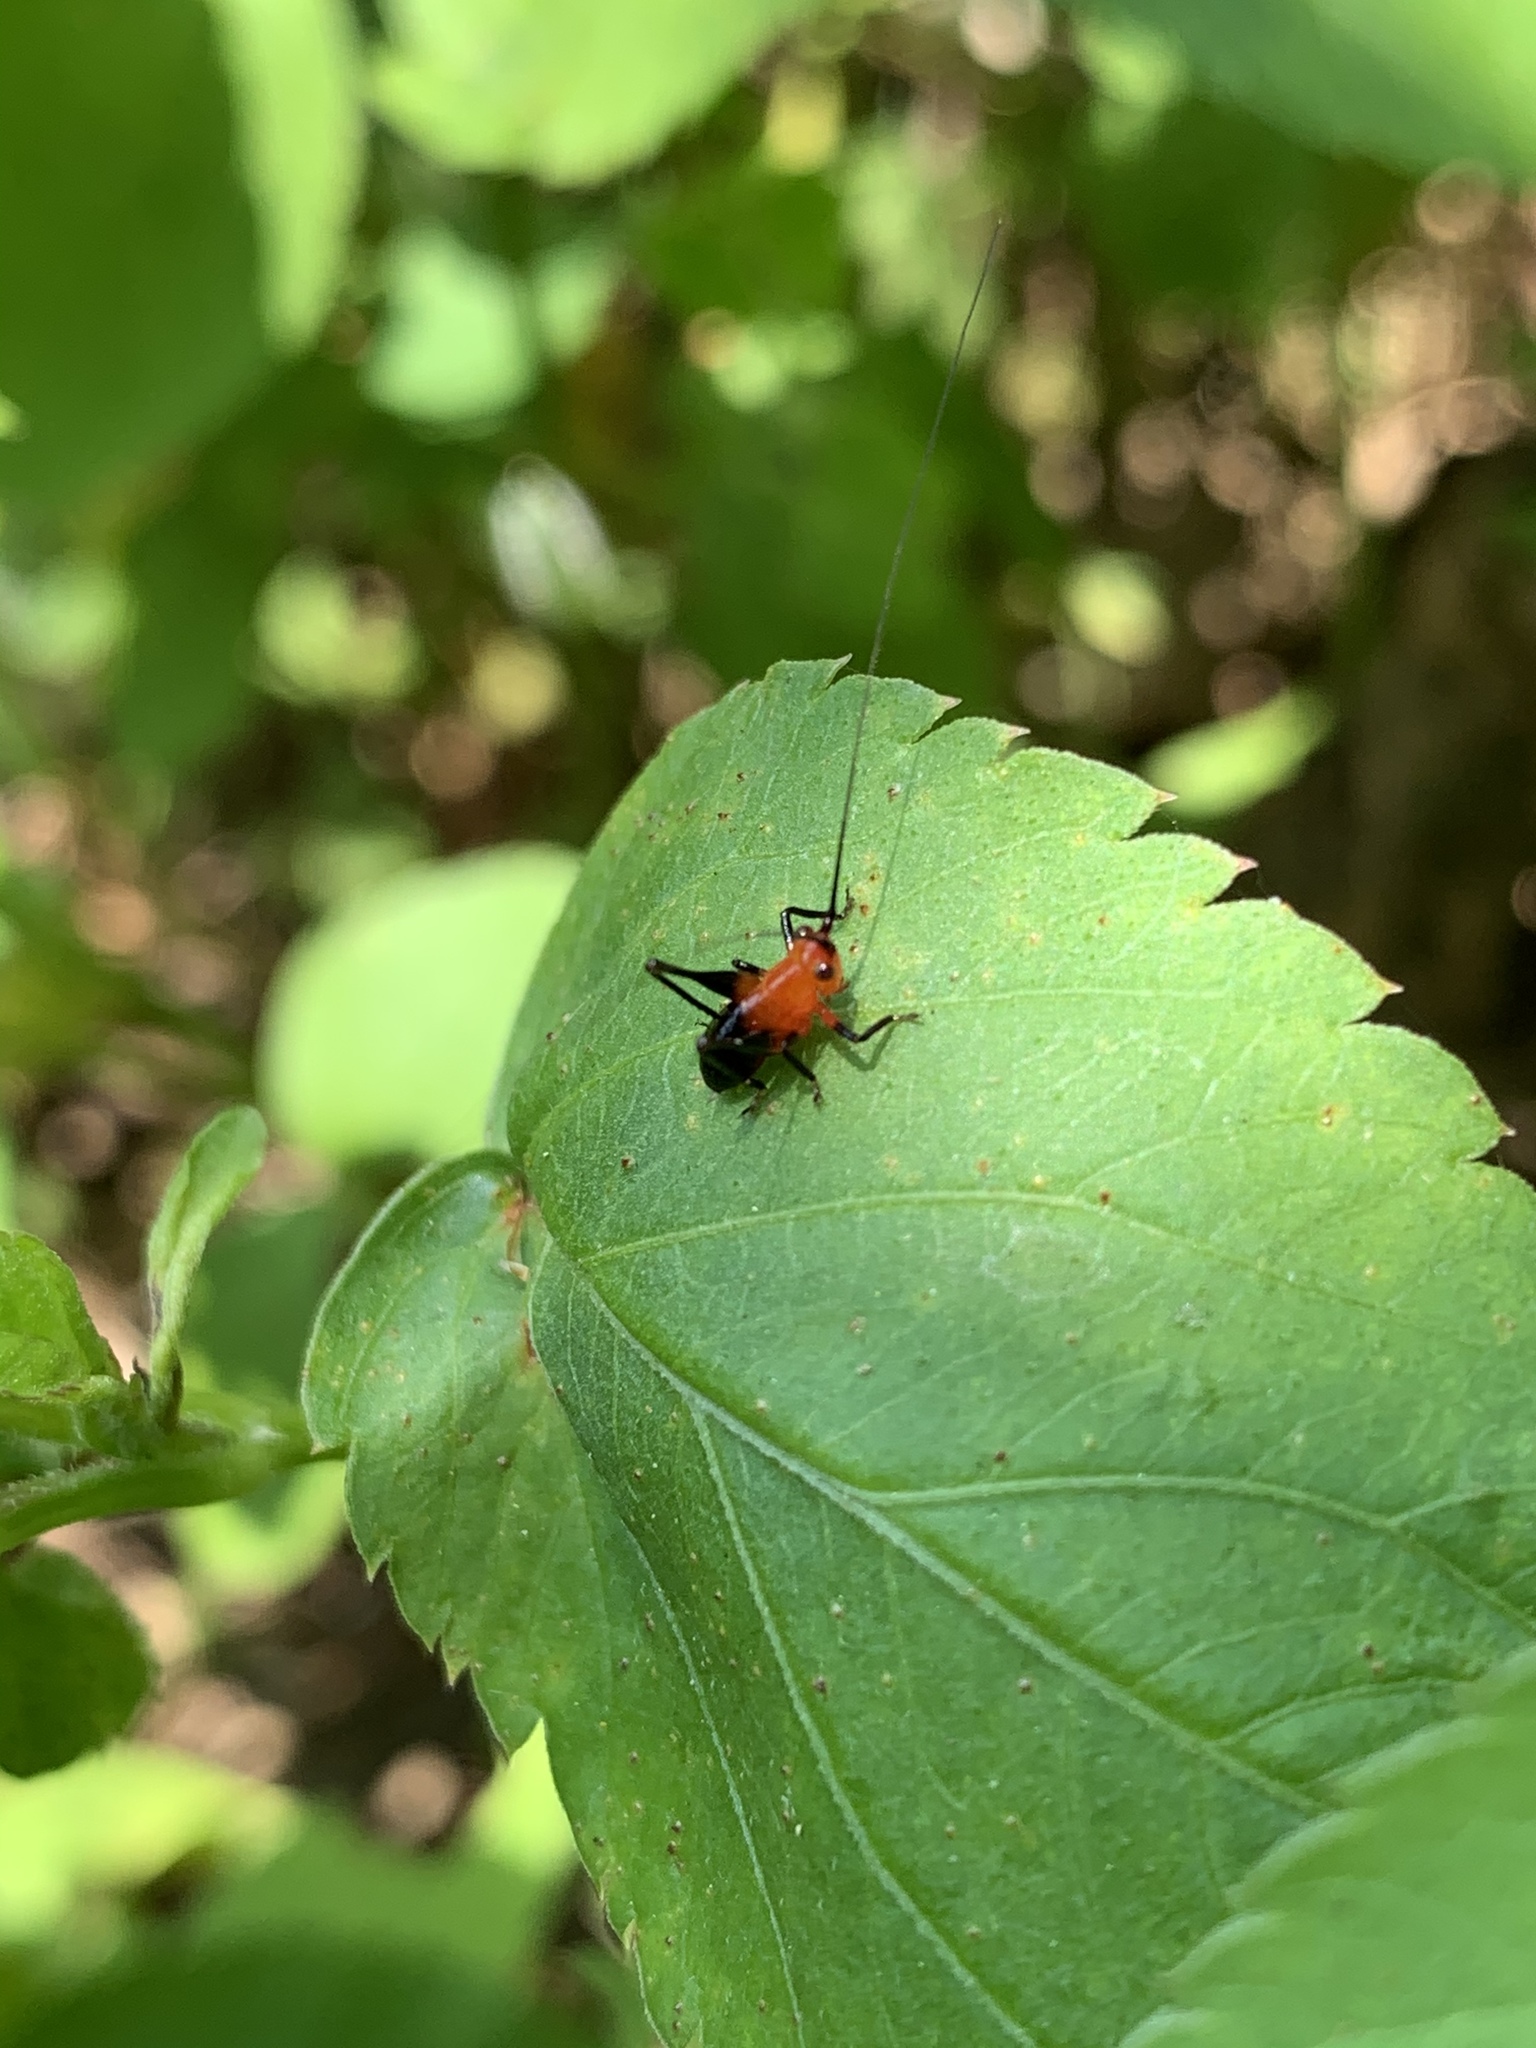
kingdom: Animalia
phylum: Arthropoda
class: Insecta
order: Orthoptera
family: Tettigoniidae
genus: Conocephalus
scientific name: Conocephalus melaenus
